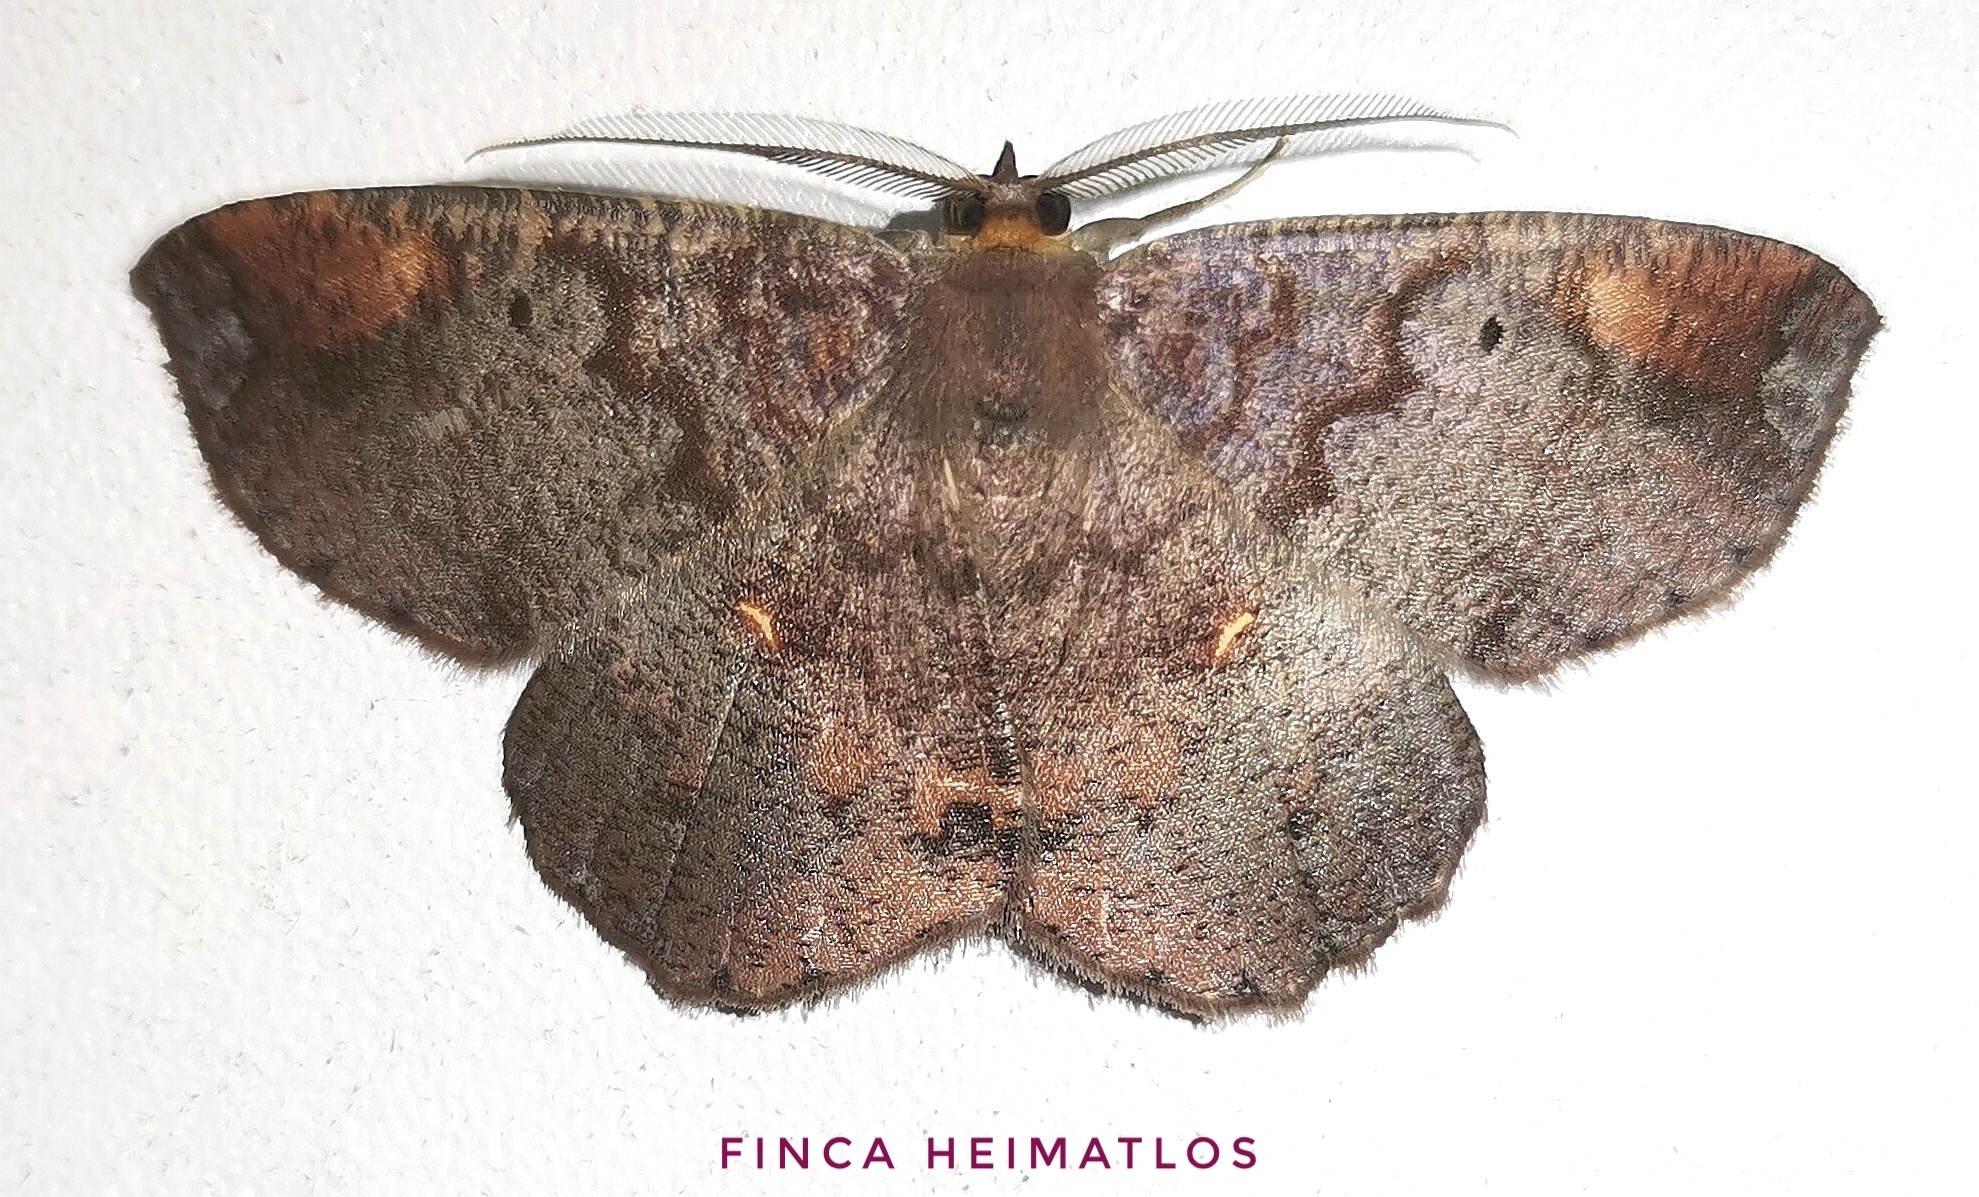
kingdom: Animalia
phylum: Arthropoda
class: Insecta
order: Lepidoptera
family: Geometridae
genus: Thysanopyga
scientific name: Thysanopyga
